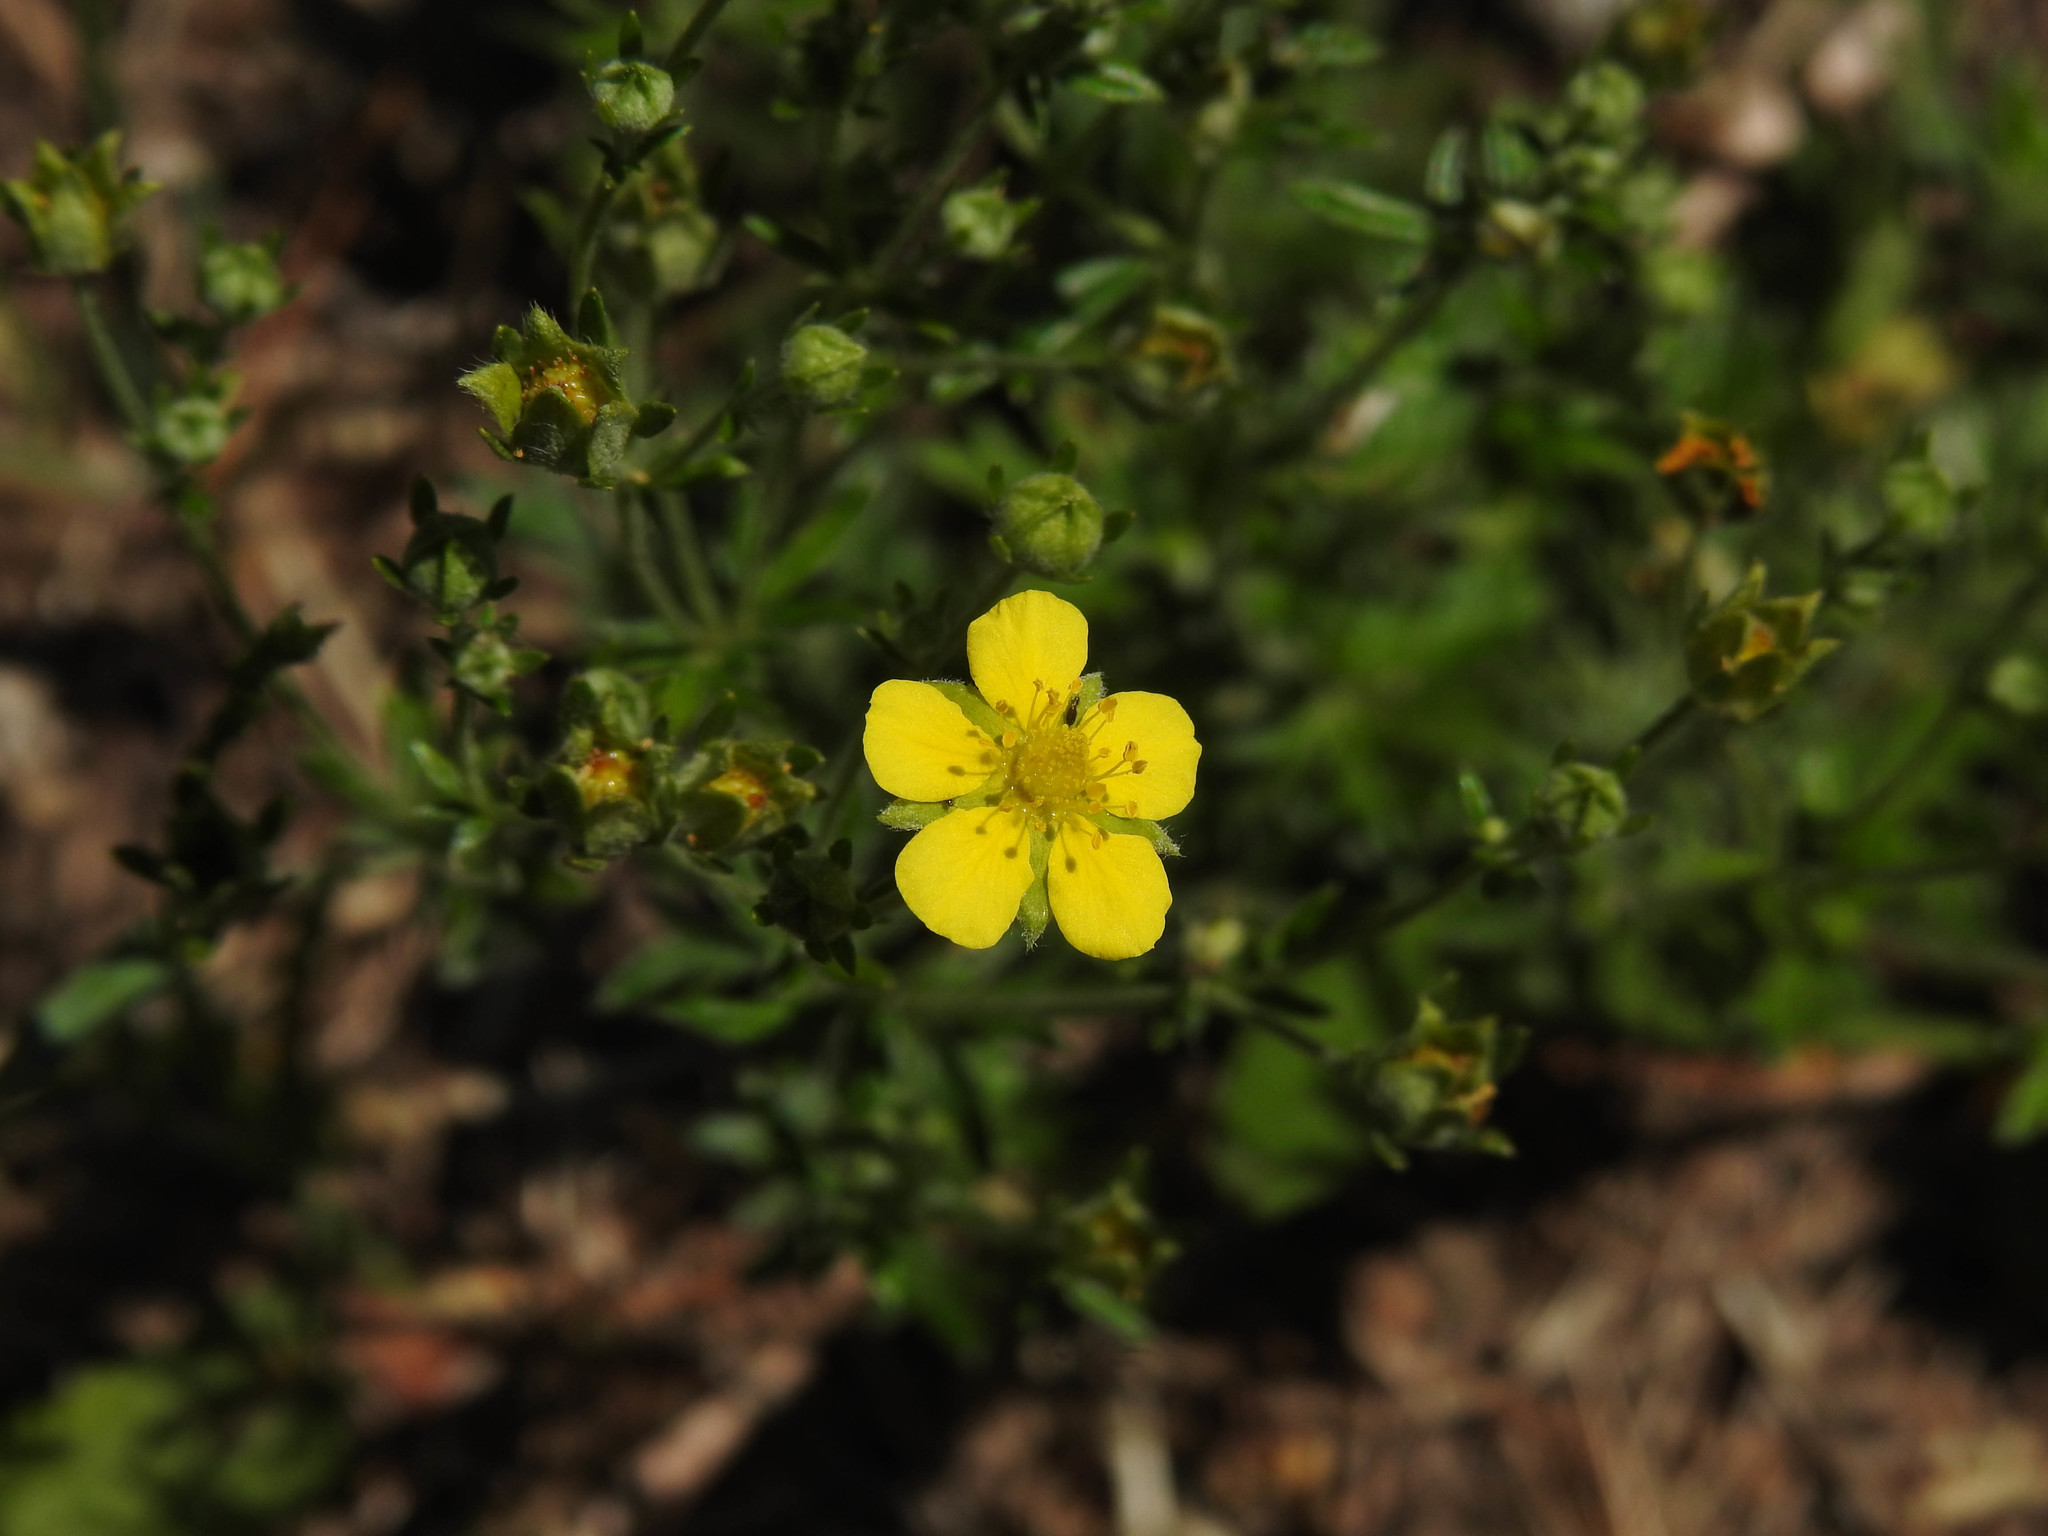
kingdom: Plantae
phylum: Tracheophyta
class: Magnoliopsida
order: Rosales
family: Rosaceae
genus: Potentilla
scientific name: Potentilla argentea
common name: Hoary cinquefoil
